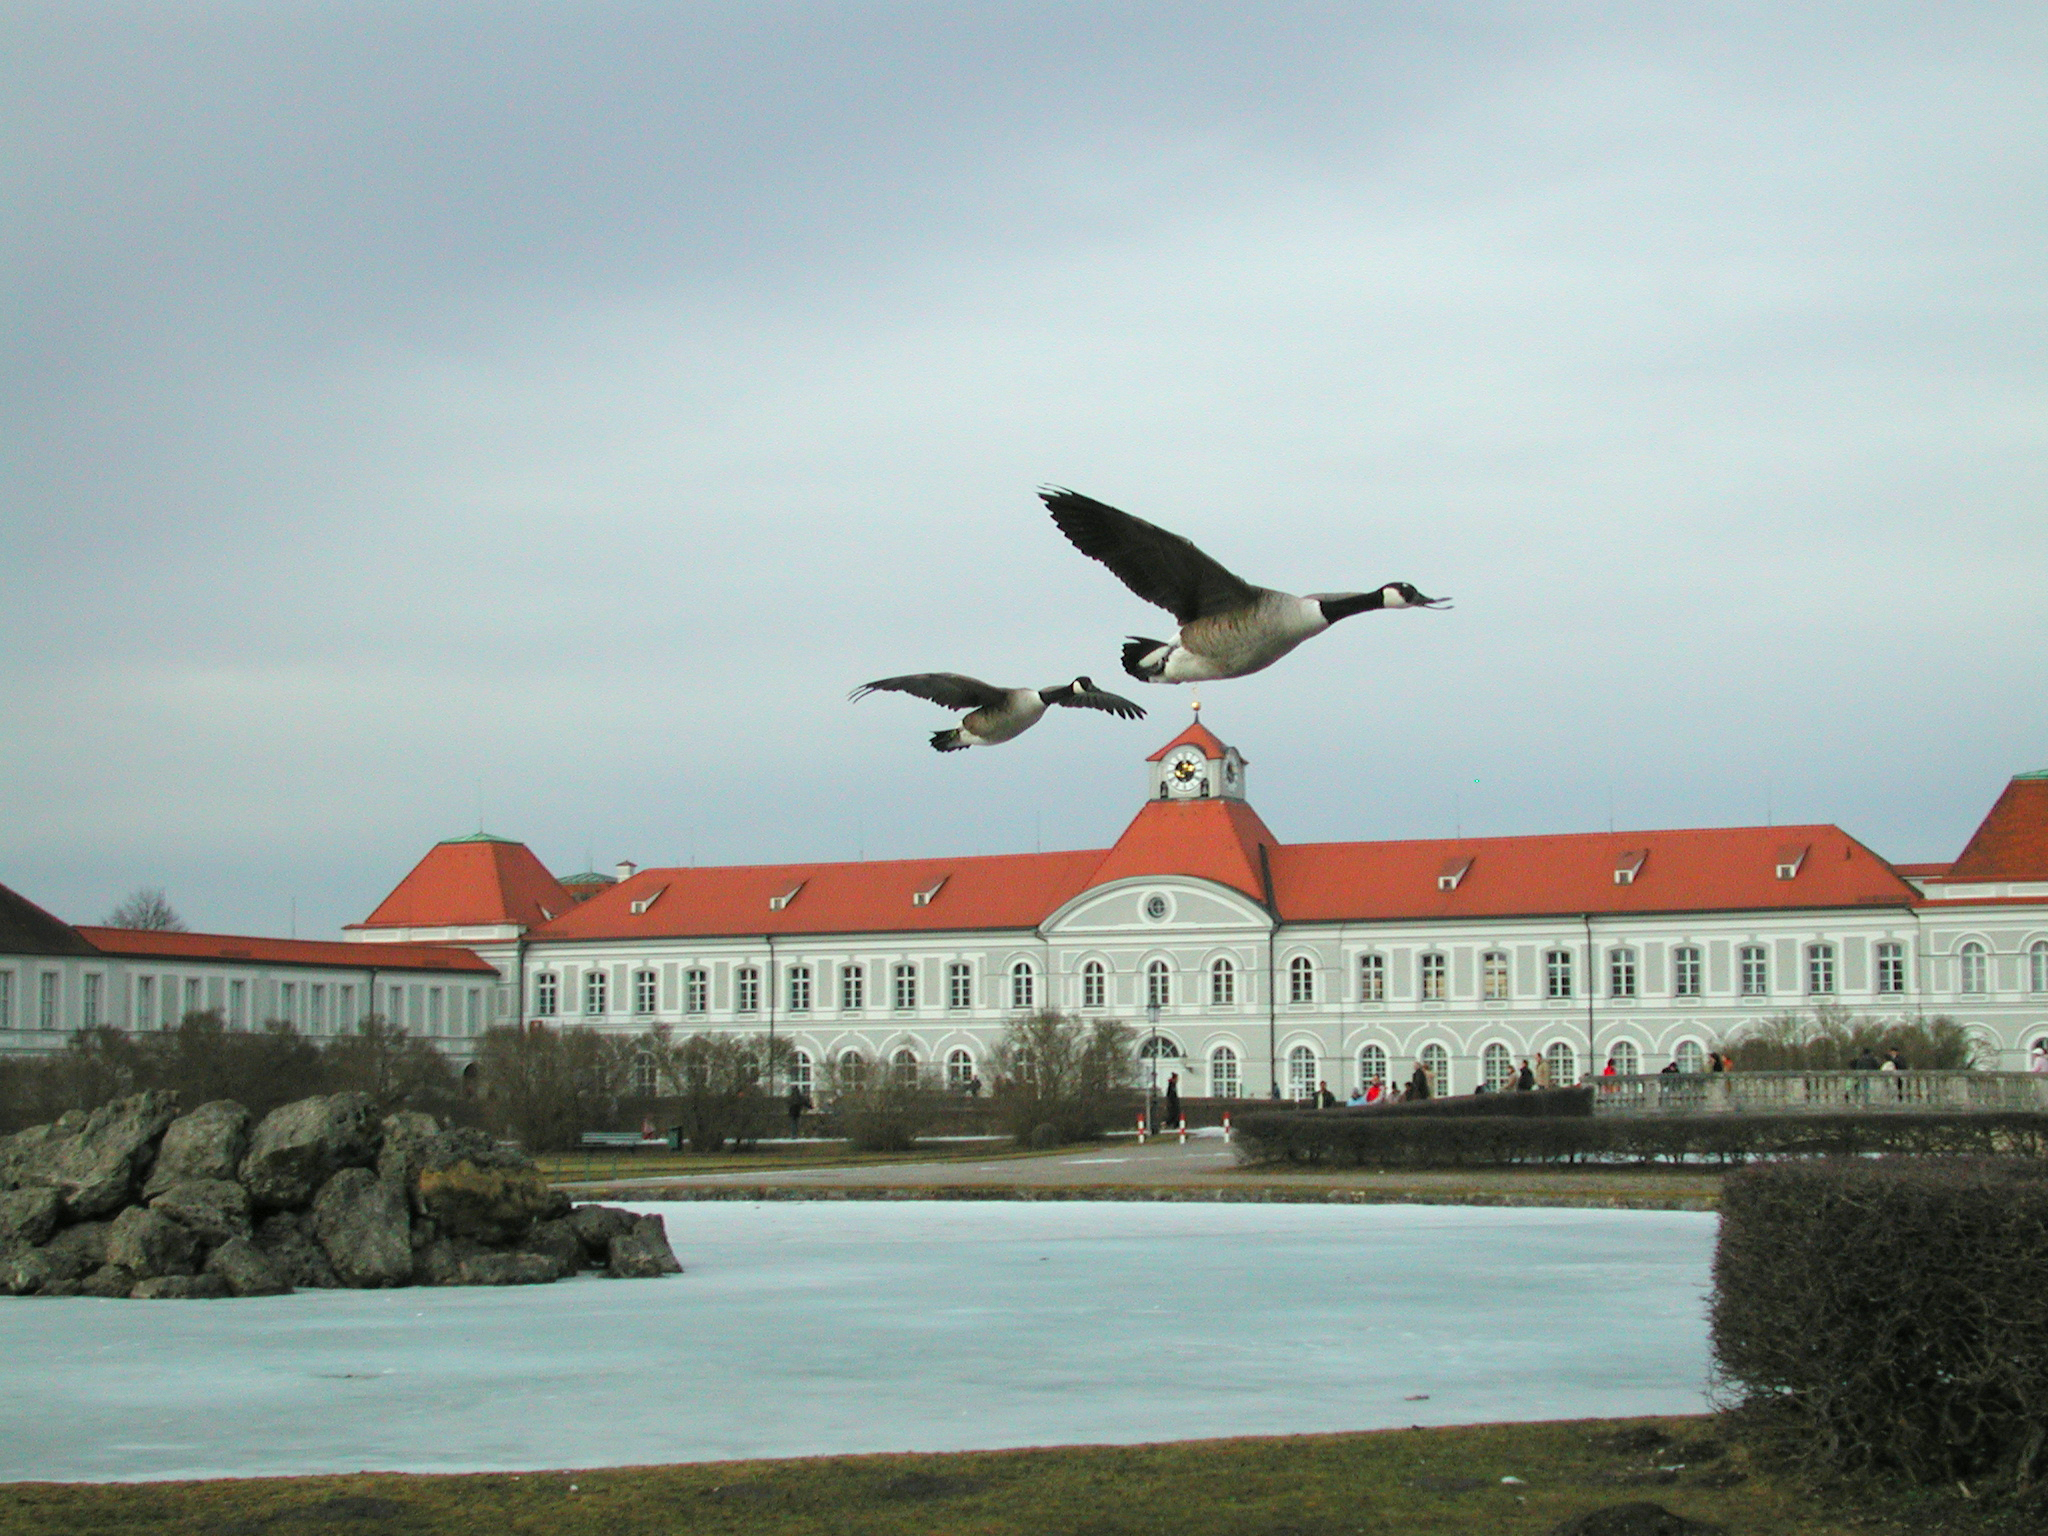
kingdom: Animalia
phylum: Chordata
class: Aves
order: Anseriformes
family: Anatidae
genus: Branta
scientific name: Branta canadensis
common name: Canada goose
